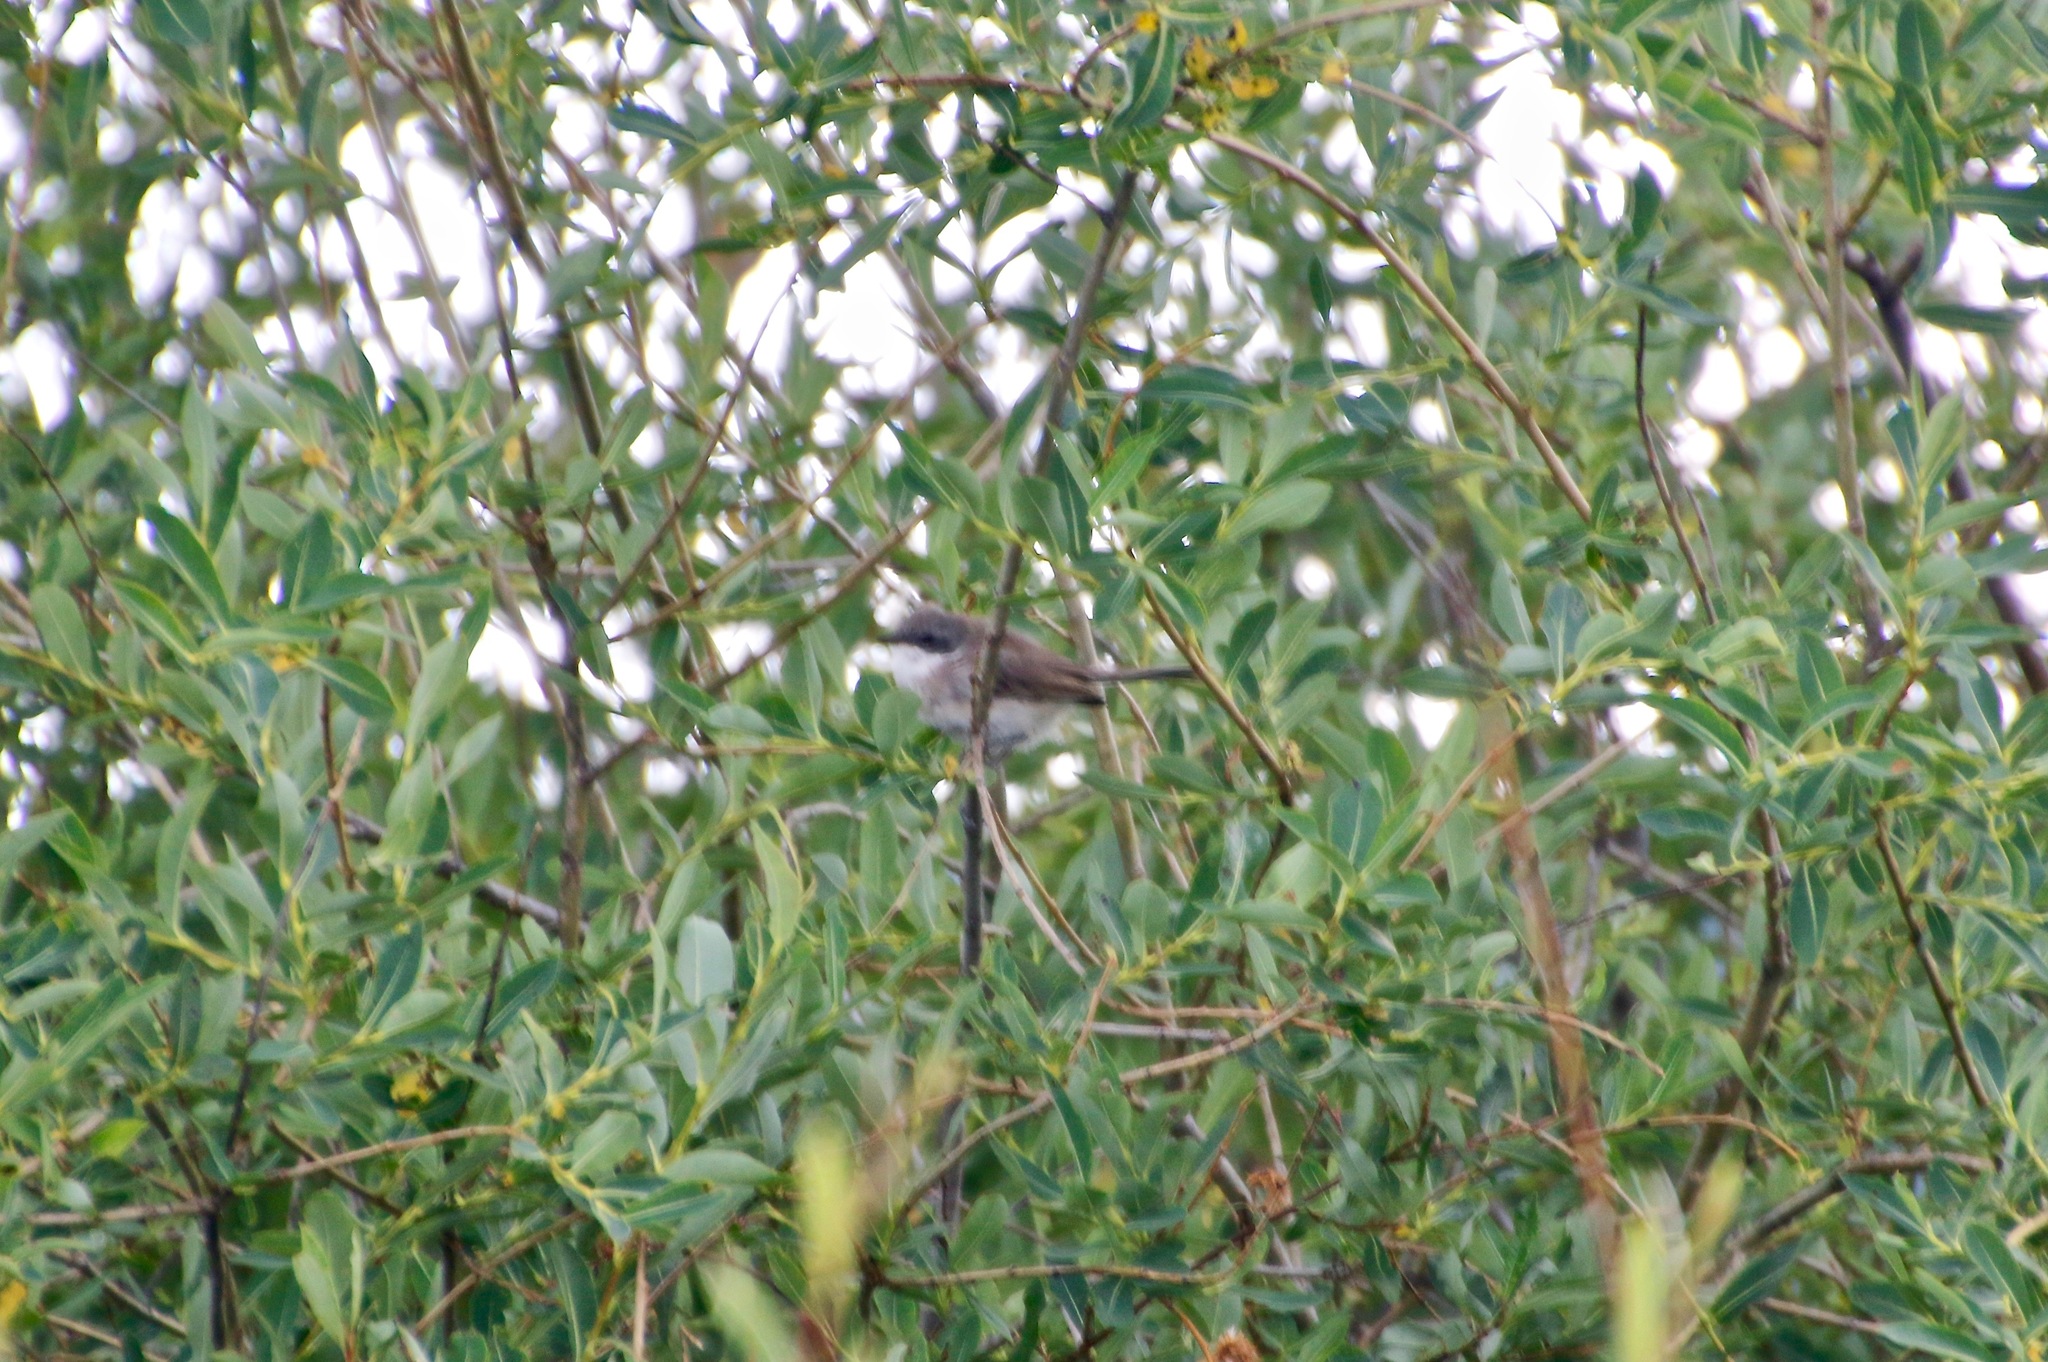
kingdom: Animalia
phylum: Chordata
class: Aves
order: Passeriformes
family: Sylviidae
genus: Sylvia
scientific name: Sylvia curruca
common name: Lesser whitethroat
